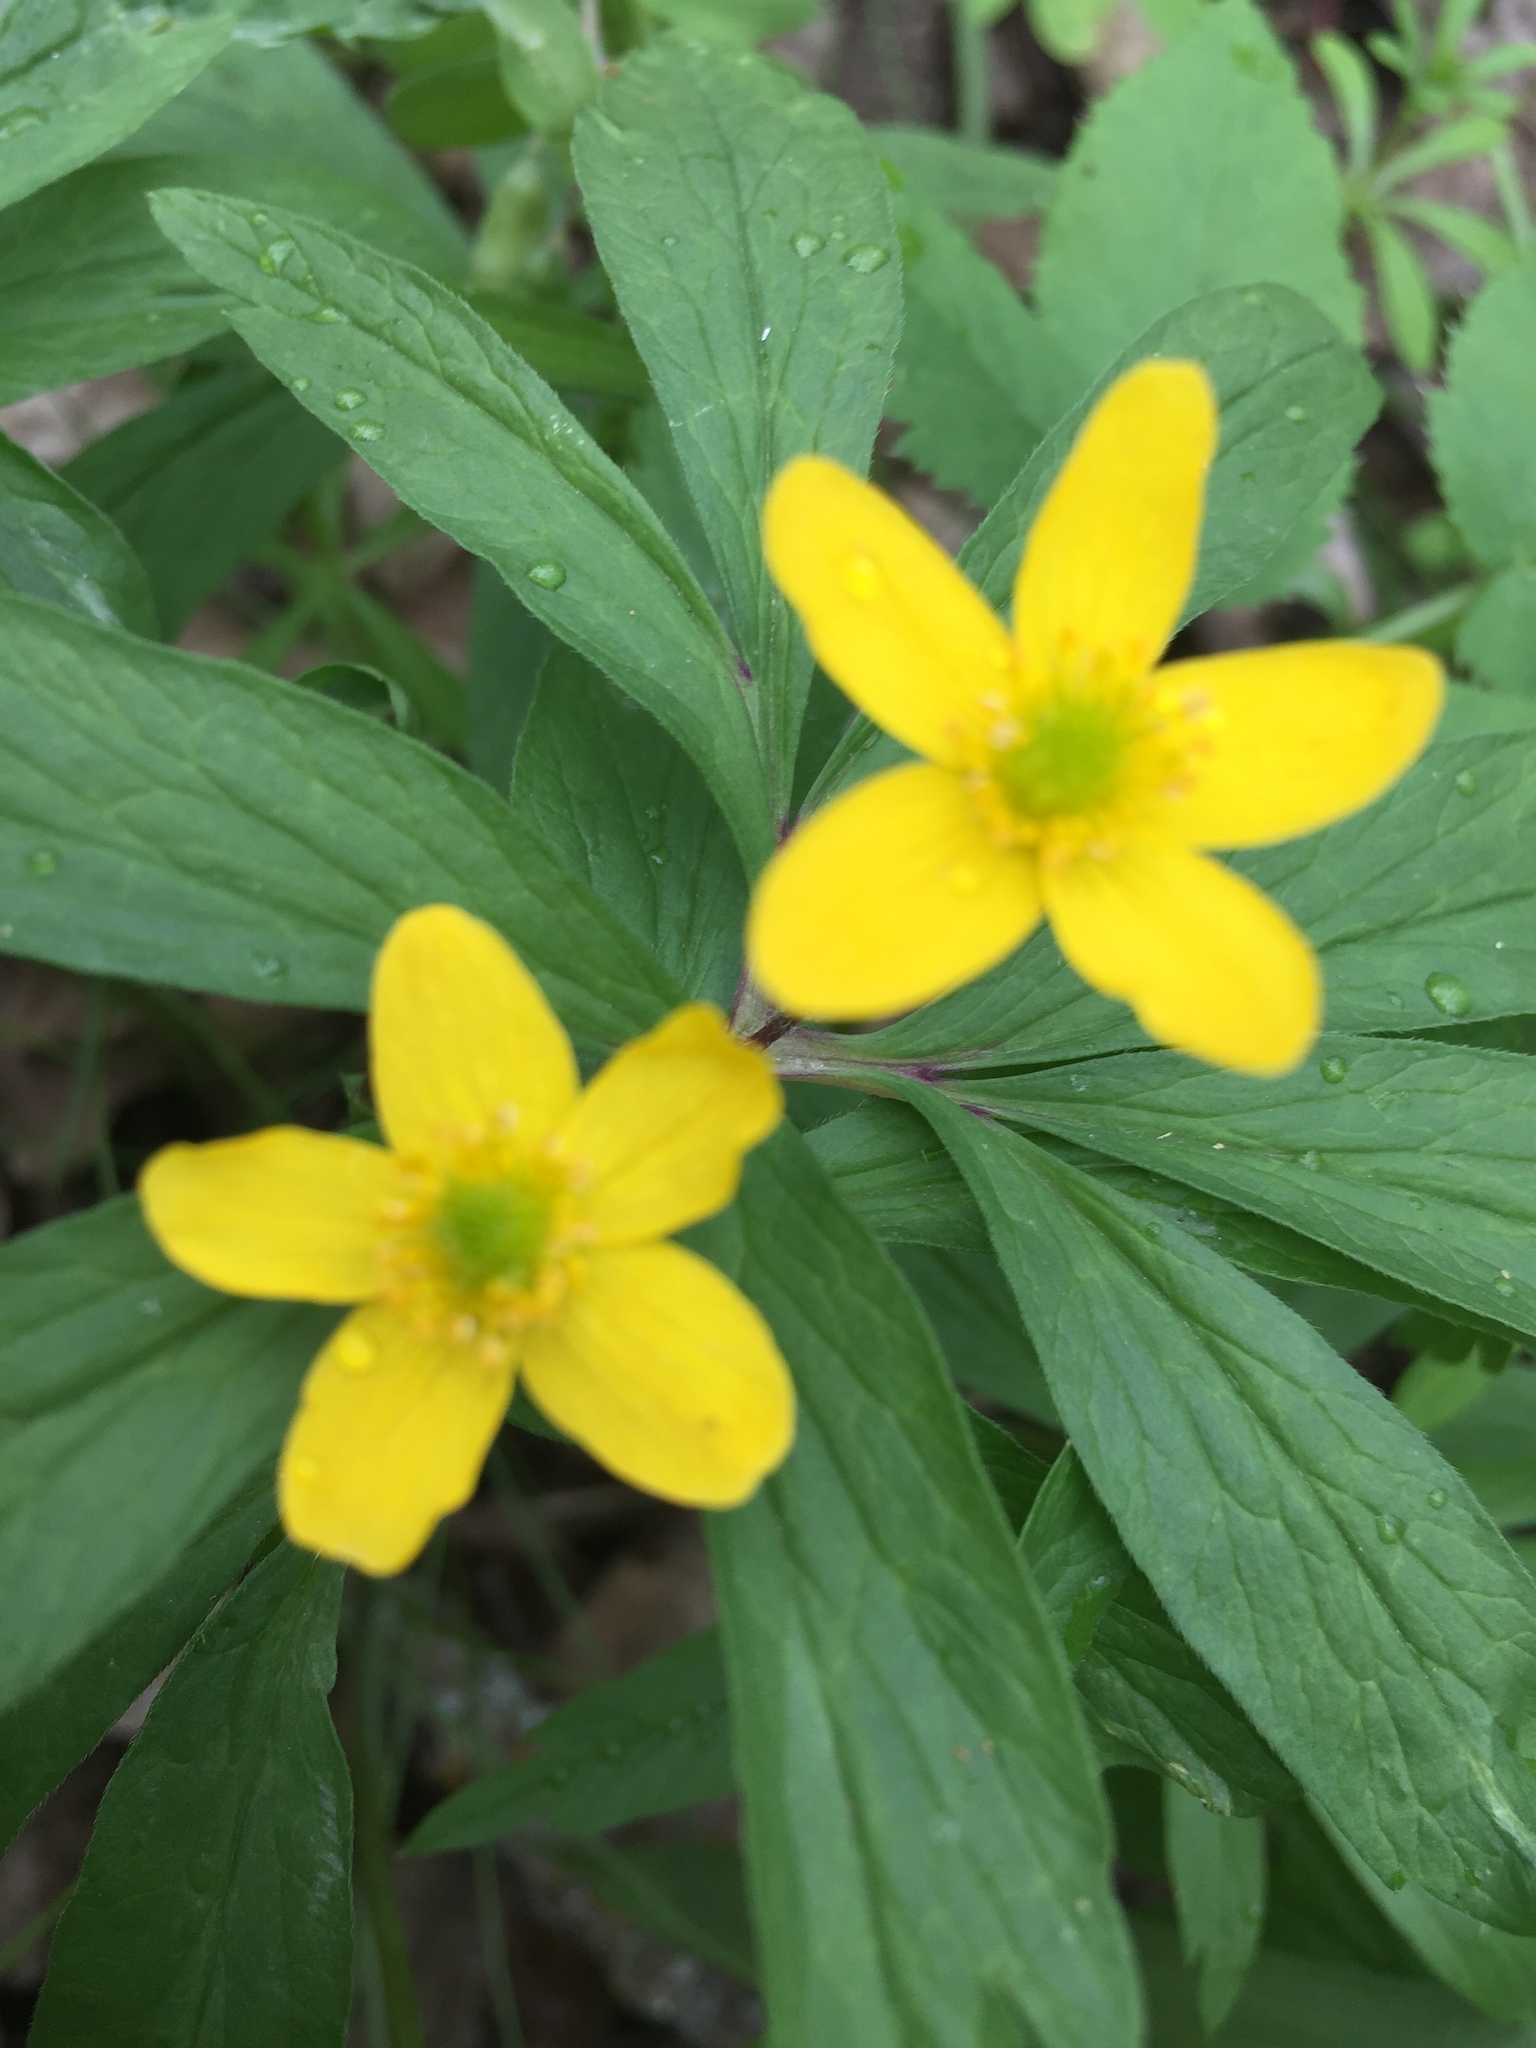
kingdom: Plantae
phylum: Tracheophyta
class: Magnoliopsida
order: Ranunculales
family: Ranunculaceae
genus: Anemone
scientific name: Anemone ranunculoides
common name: Yellow anemone
